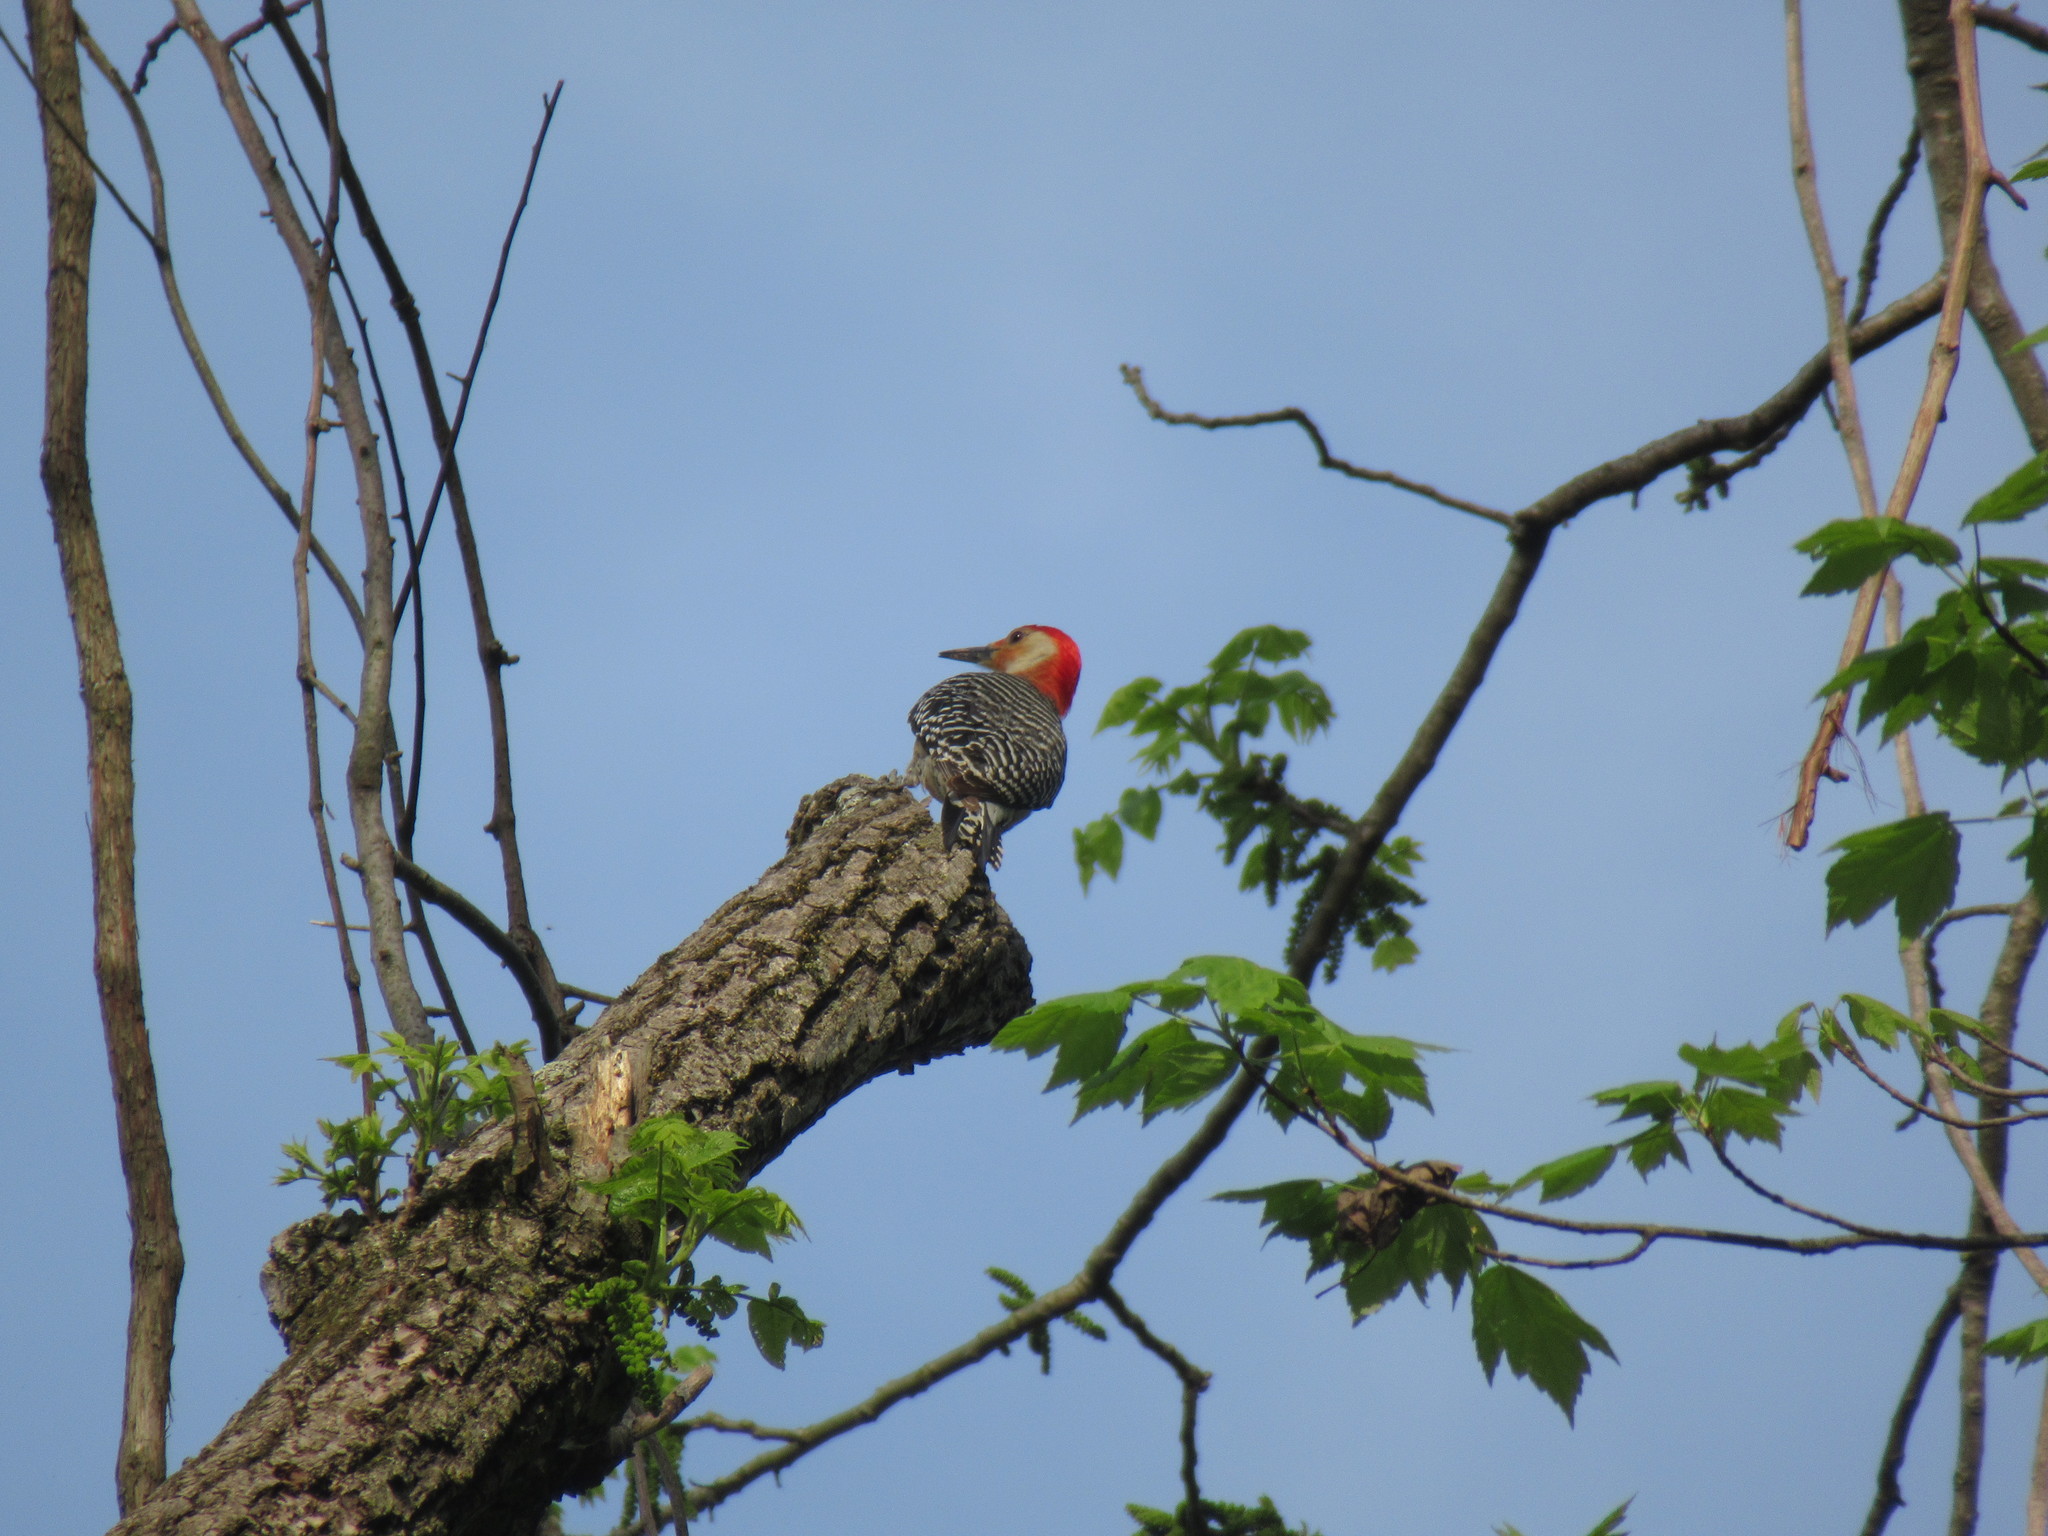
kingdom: Animalia
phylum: Chordata
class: Aves
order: Piciformes
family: Picidae
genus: Melanerpes
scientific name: Melanerpes carolinus
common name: Red-bellied woodpecker
